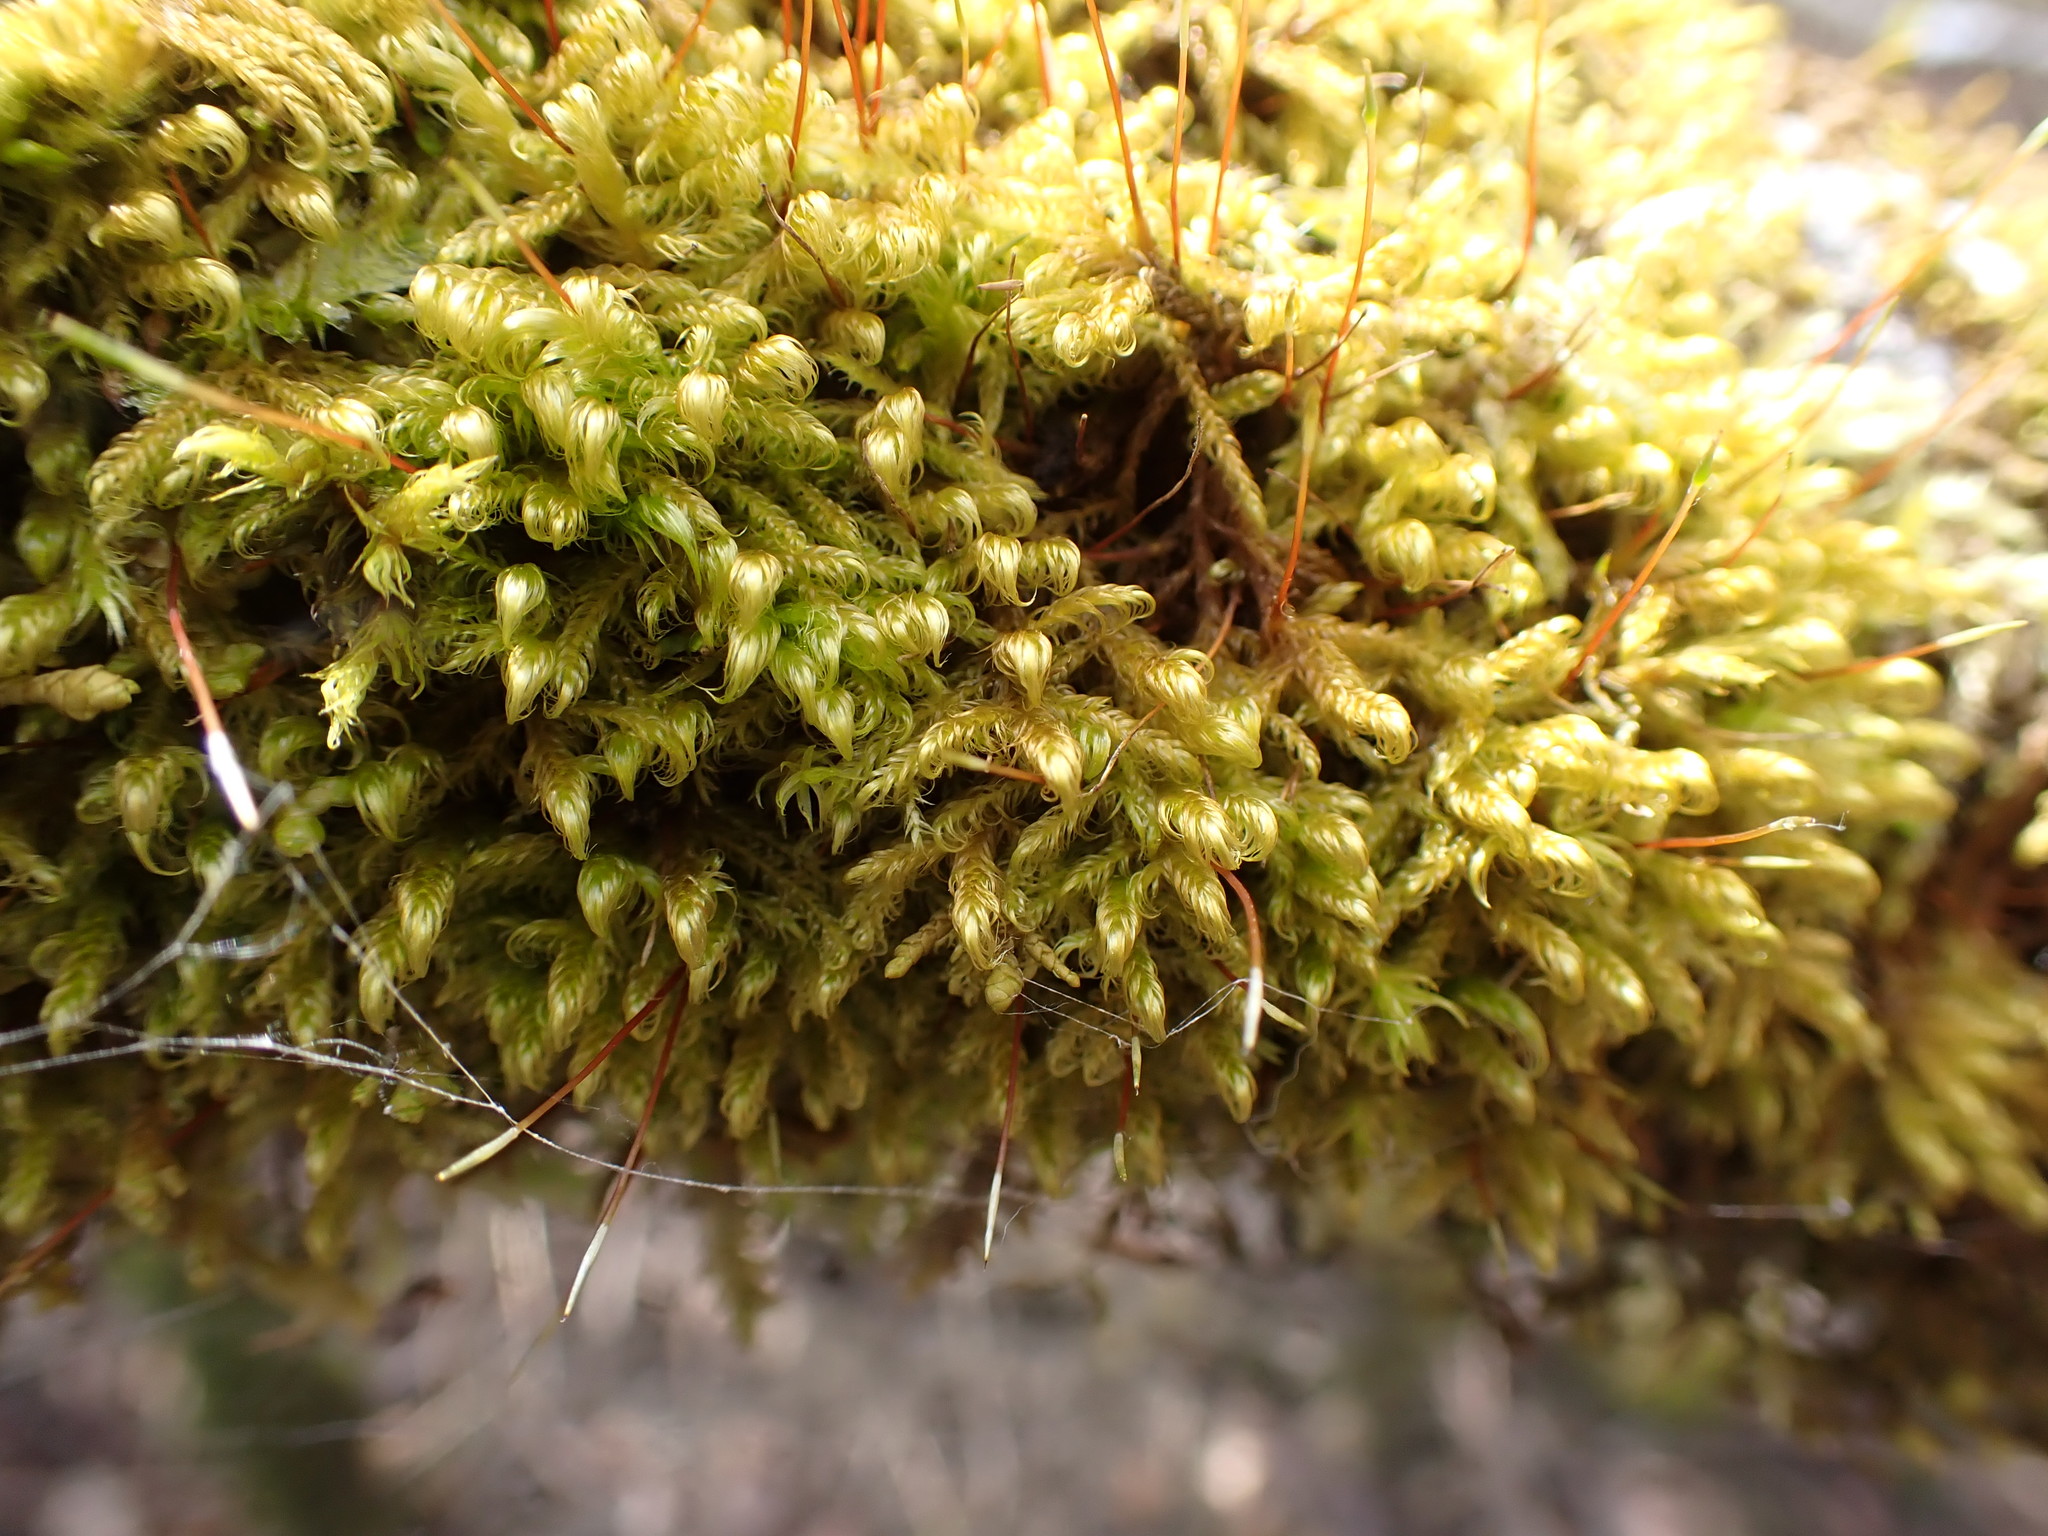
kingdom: Plantae
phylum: Bryophyta
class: Bryopsida
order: Hypnales
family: Scorpidiaceae
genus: Sanionia
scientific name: Sanionia uncinata
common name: Sickle moss
